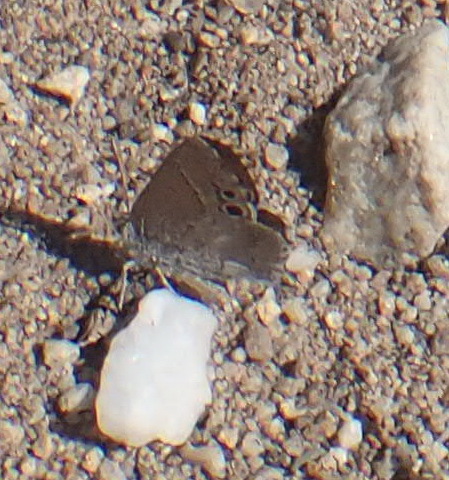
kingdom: Animalia
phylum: Arthropoda
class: Insecta
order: Lepidoptera
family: Lycaenidae
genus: Leptomyrina
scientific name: Leptomyrina lara
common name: Cape black-eye
